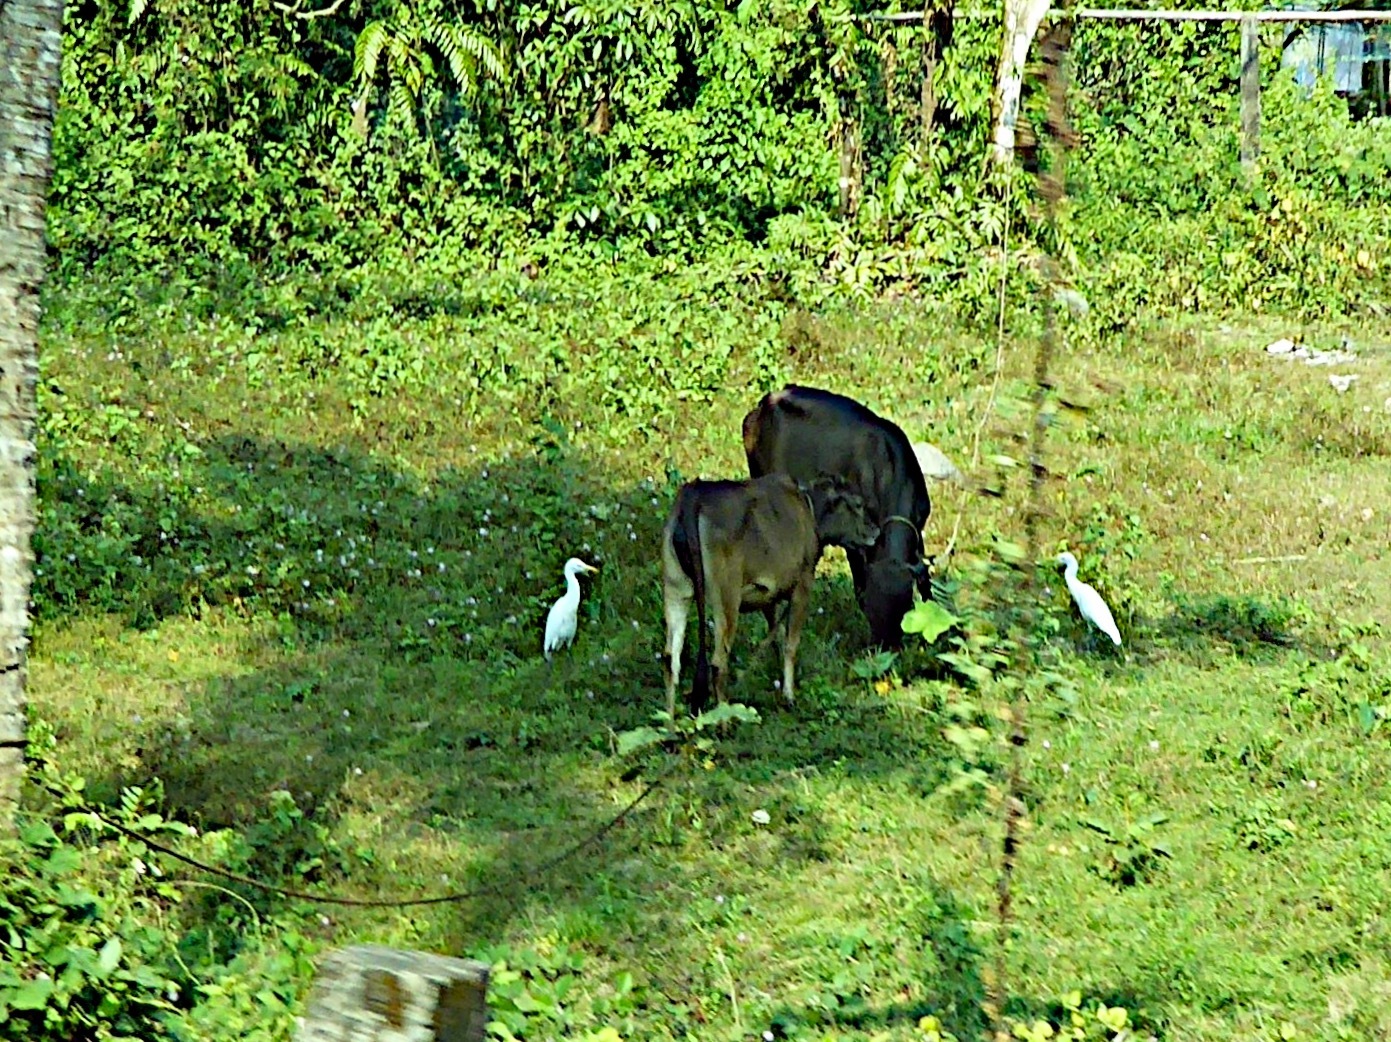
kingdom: Animalia
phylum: Chordata
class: Aves
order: Pelecaniformes
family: Ardeidae
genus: Bubulcus
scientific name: Bubulcus coromandus
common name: Eastern cattle egret
